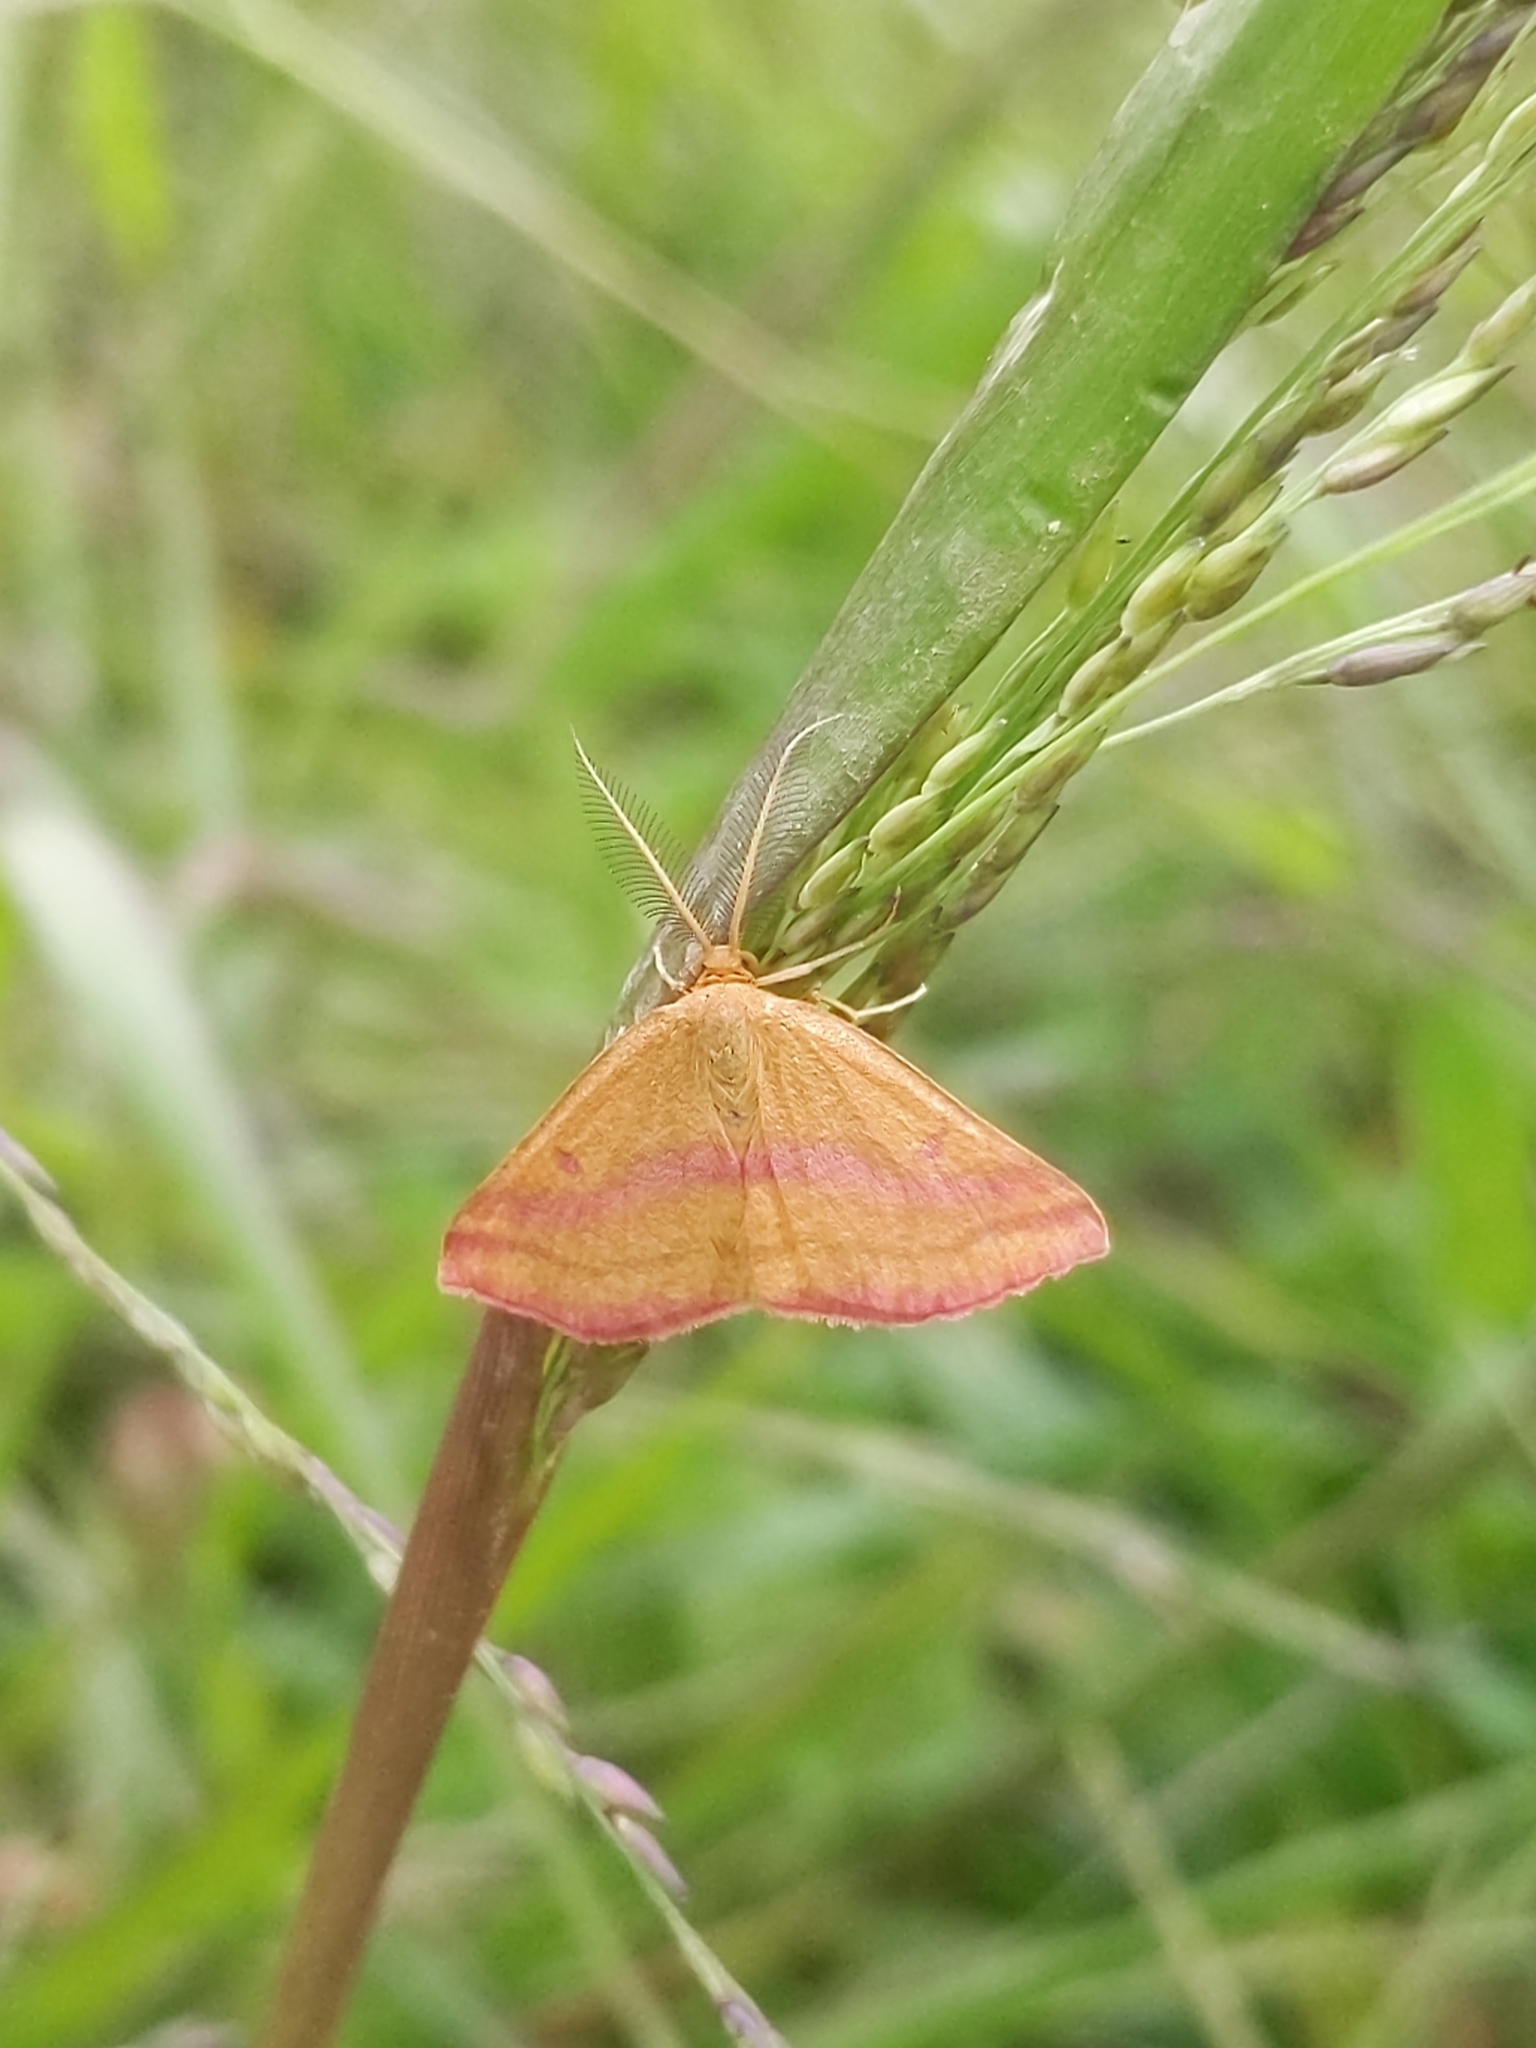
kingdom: Animalia
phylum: Arthropoda
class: Insecta
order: Lepidoptera
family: Geometridae
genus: Haematopis
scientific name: Haematopis grataria
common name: Chickweed geometer
